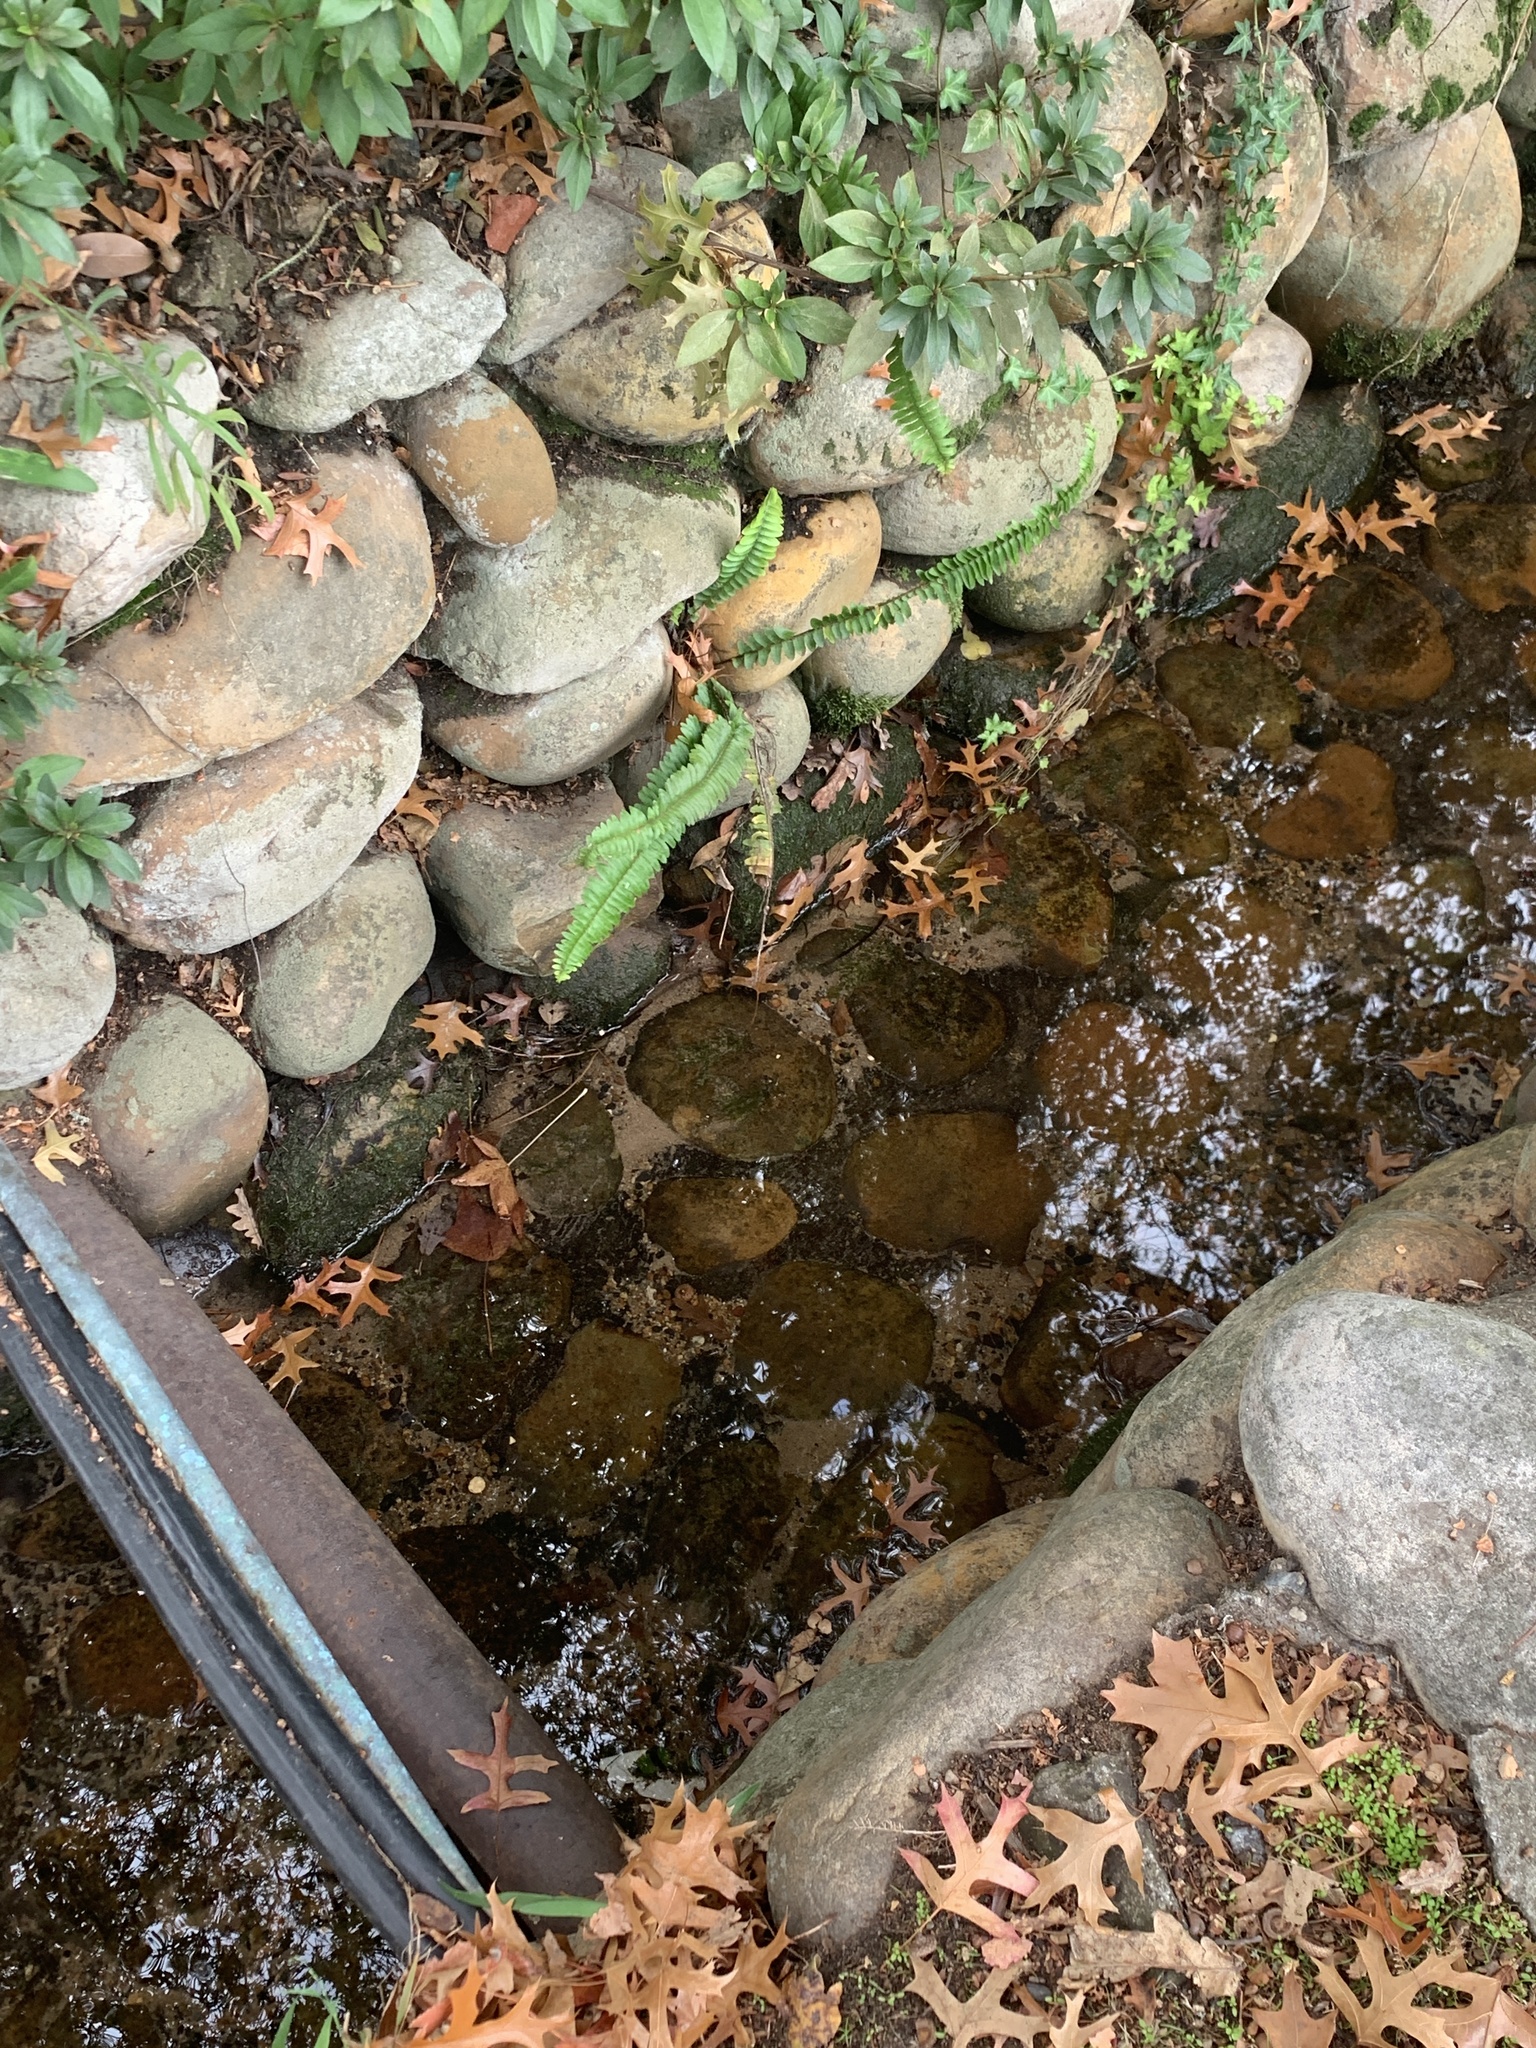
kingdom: Plantae
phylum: Tracheophyta
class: Polypodiopsida
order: Polypodiales
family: Nephrolepidaceae
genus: Nephrolepis
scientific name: Nephrolepis cordifolia
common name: Narrow swordfern
